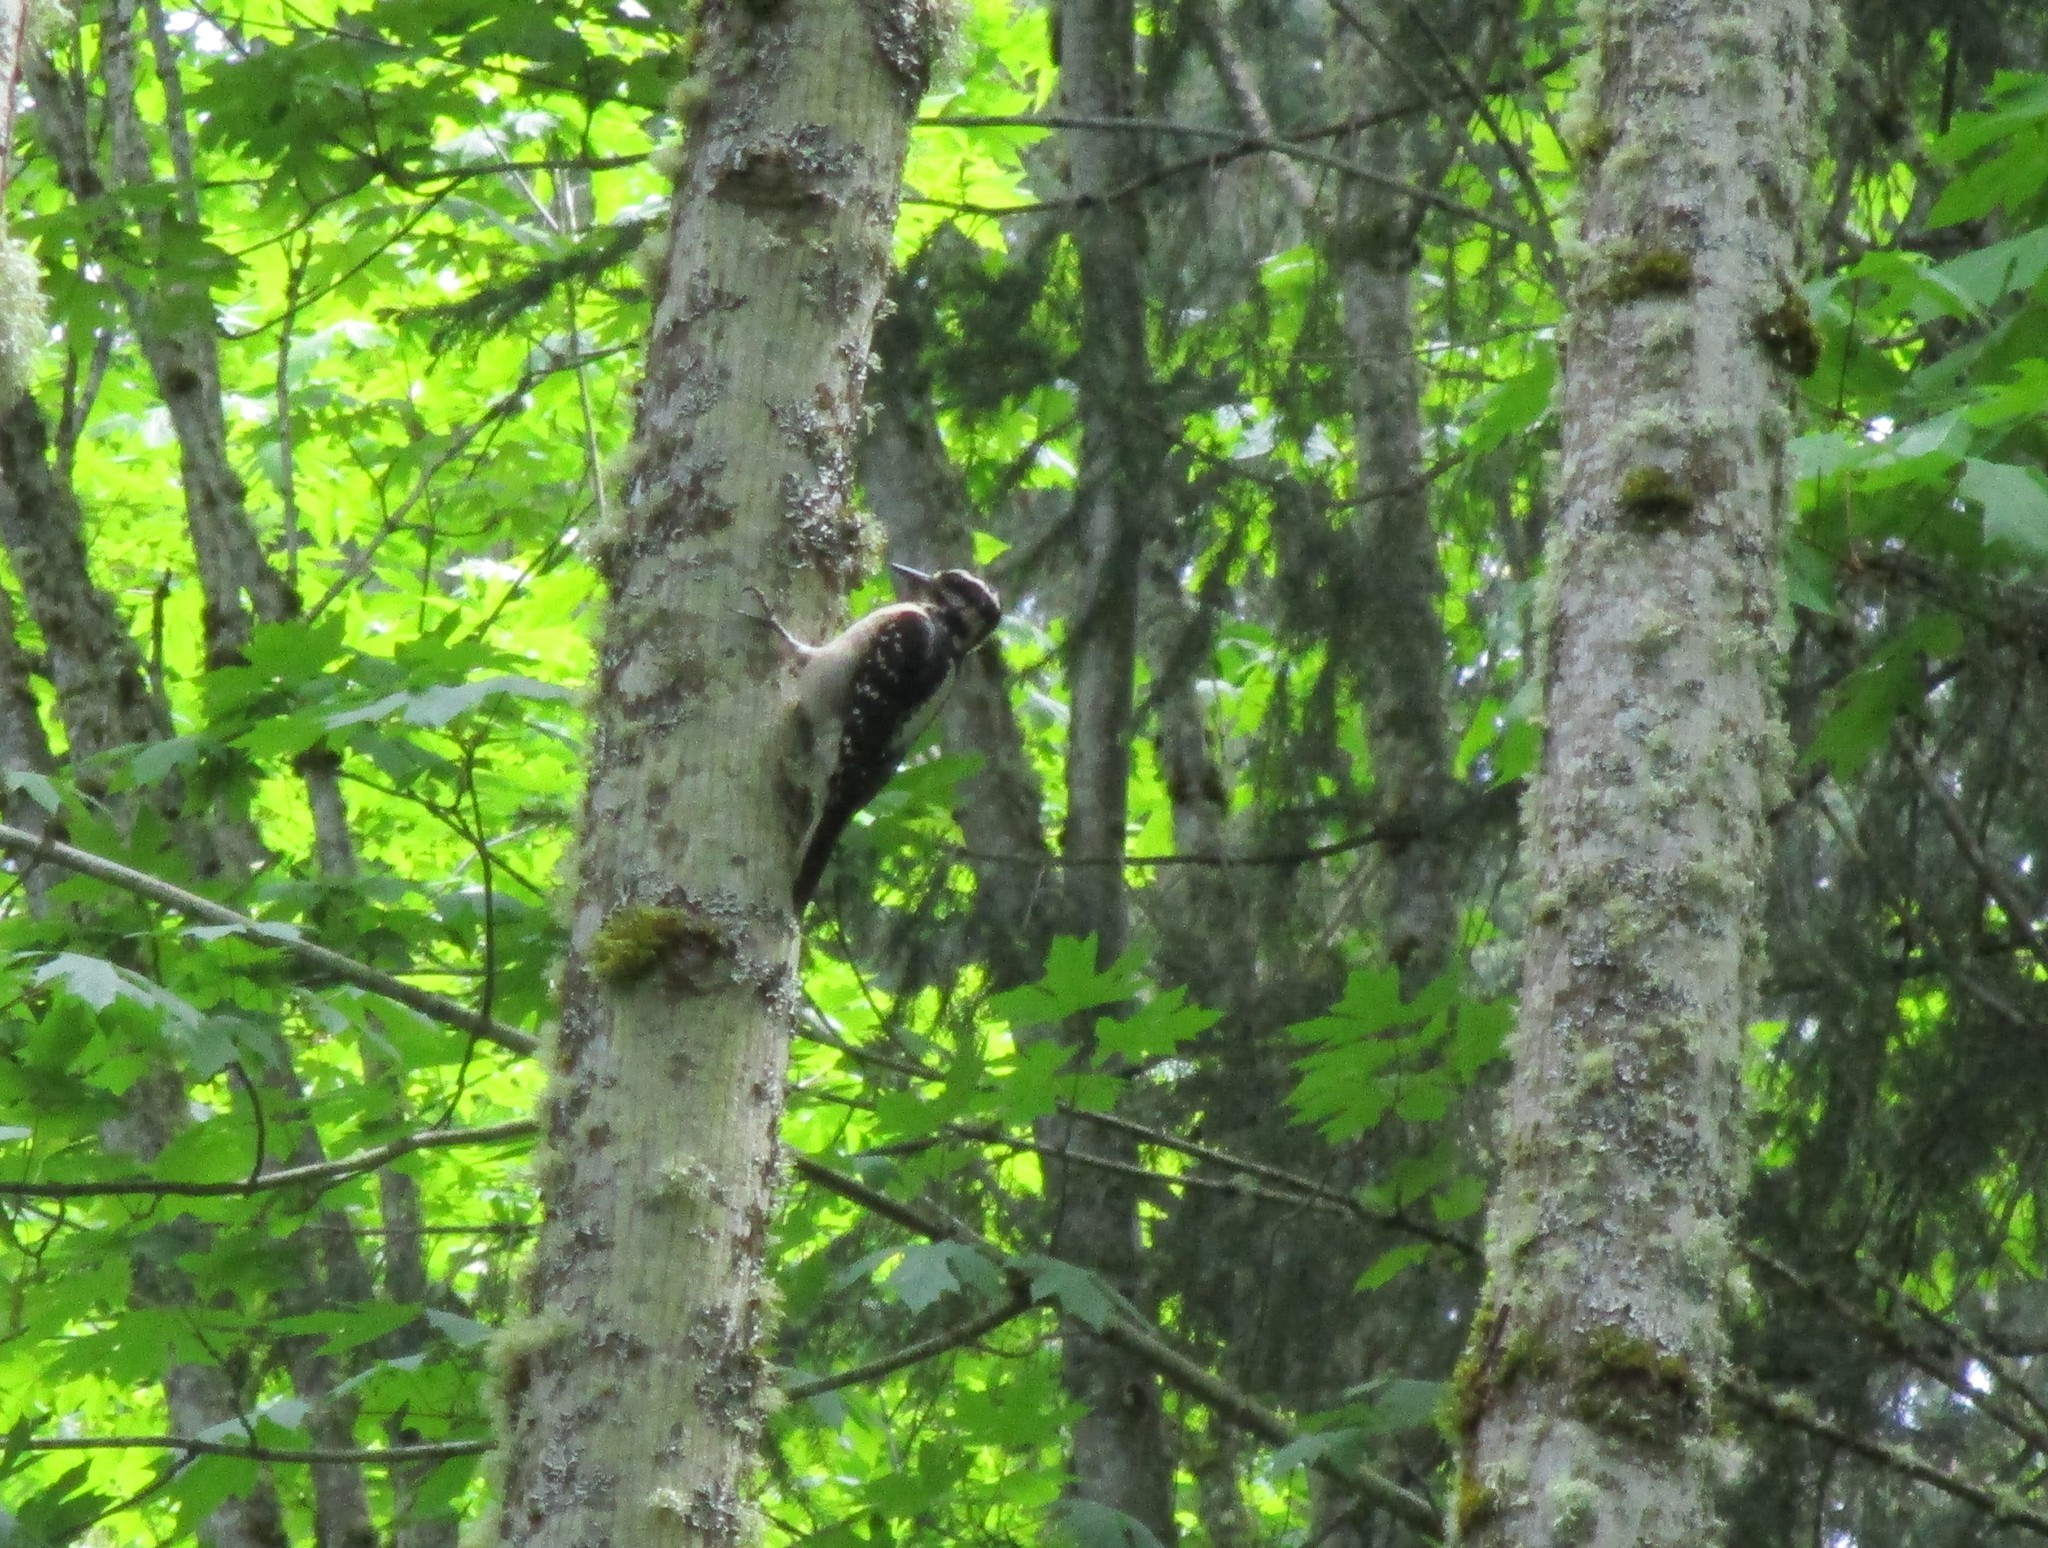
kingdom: Animalia
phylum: Chordata
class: Aves
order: Piciformes
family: Picidae
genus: Leuconotopicus
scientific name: Leuconotopicus villosus
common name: Hairy woodpecker
